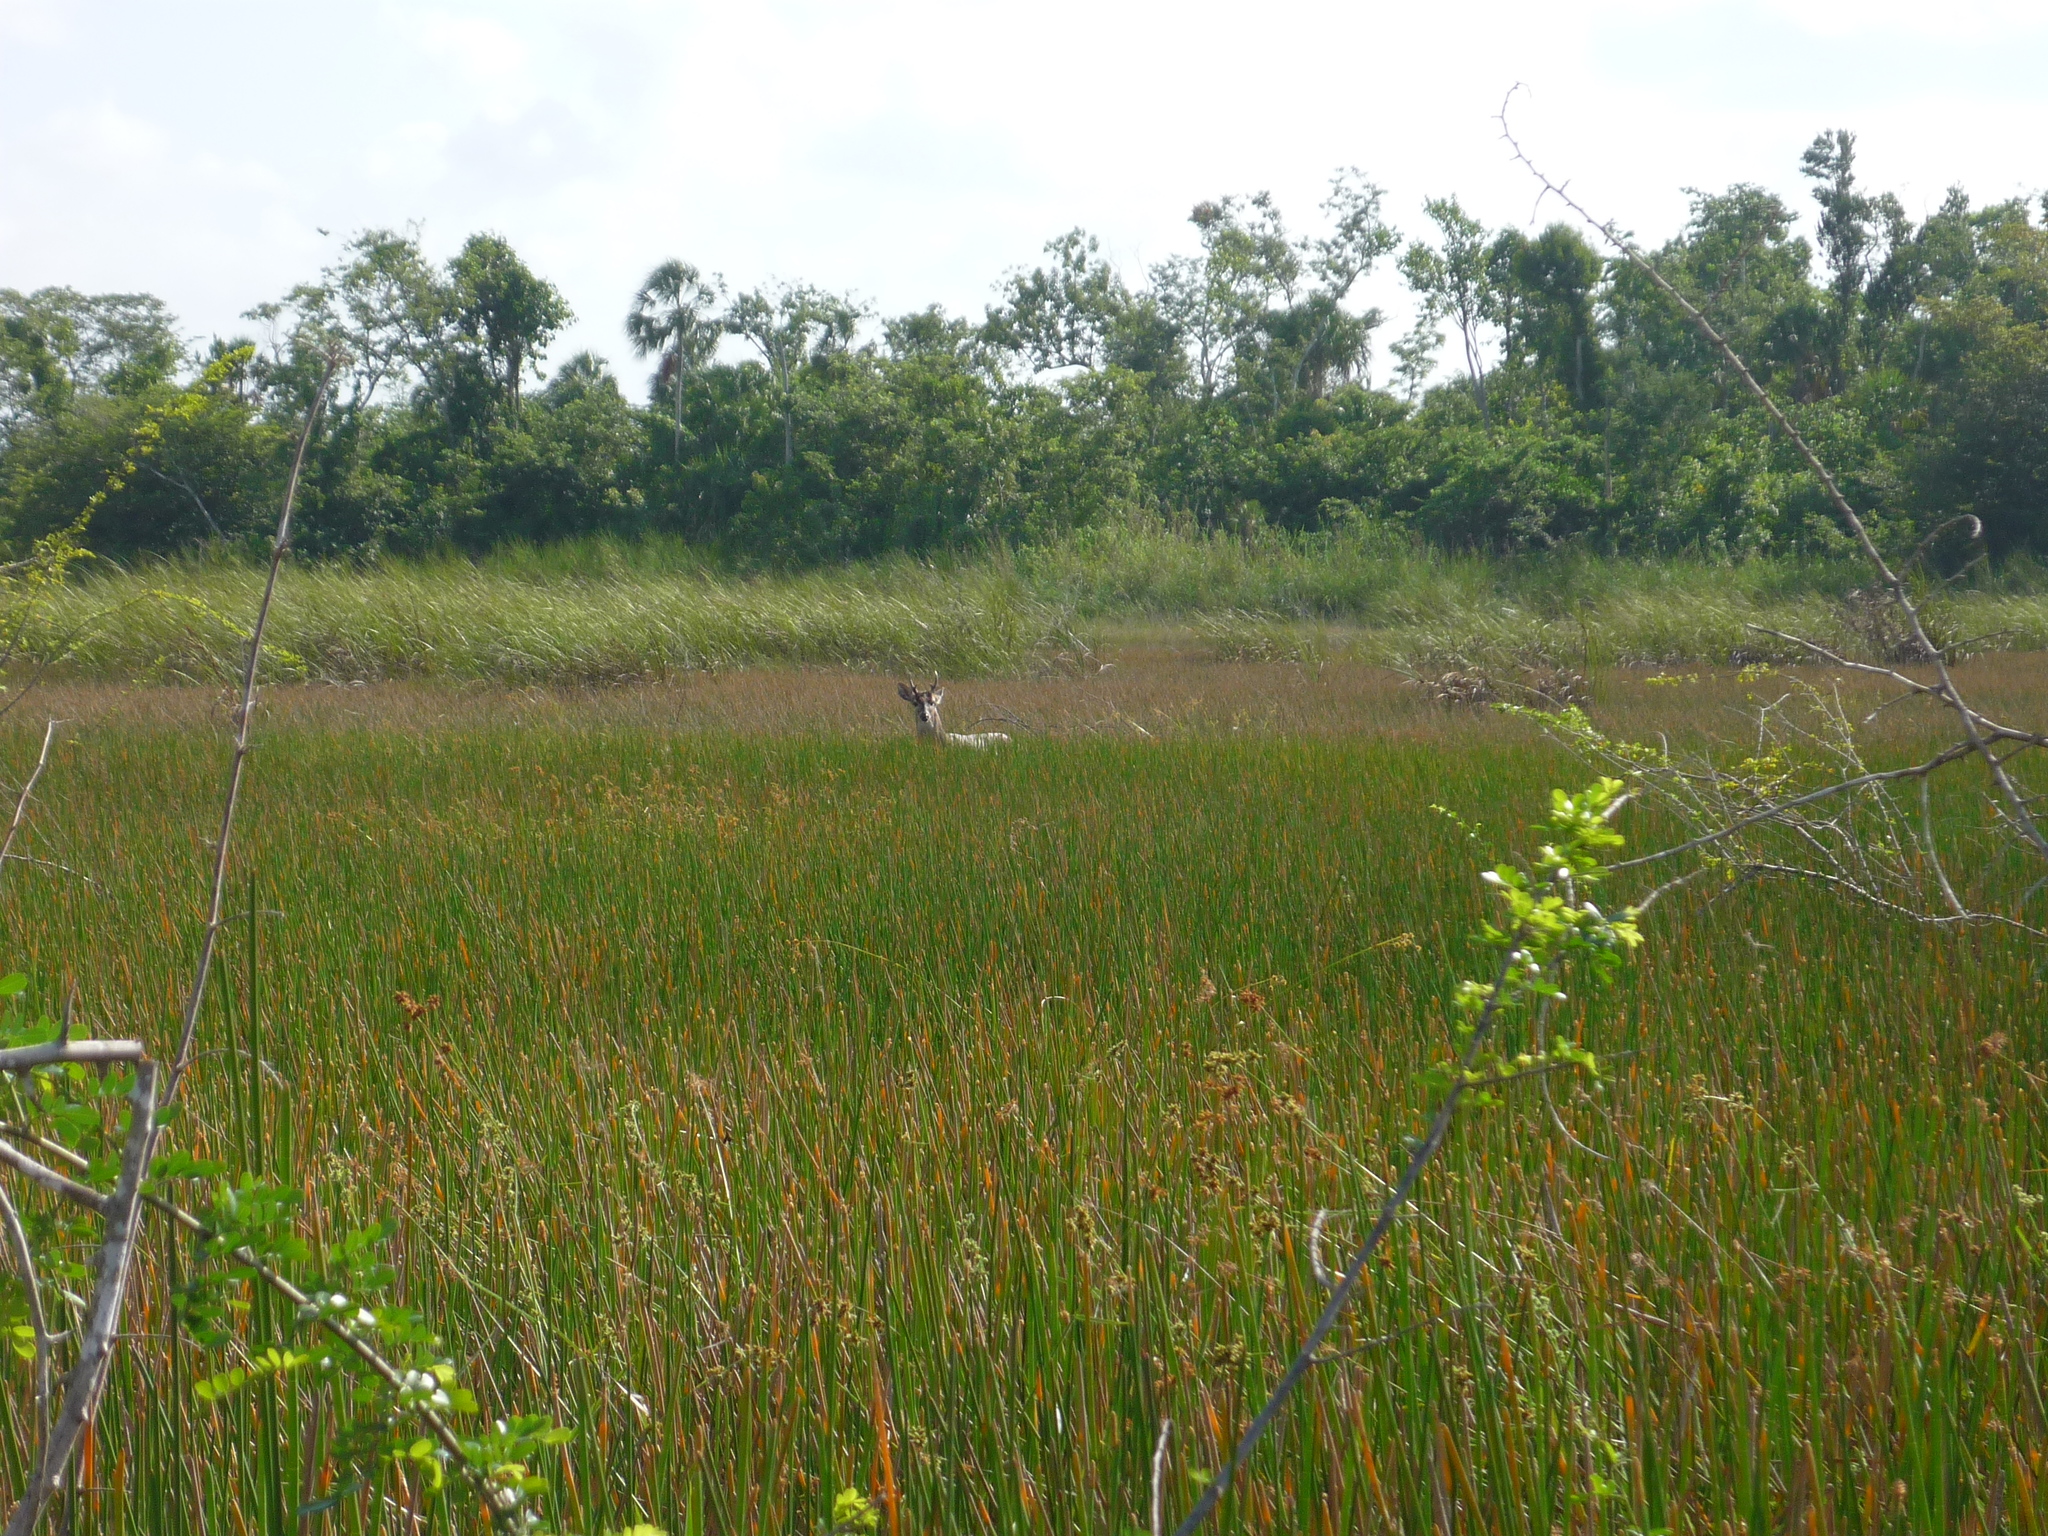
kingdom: Animalia
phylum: Chordata
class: Mammalia
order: Artiodactyla
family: Cervidae
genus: Odocoileus
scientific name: Odocoileus virginianus
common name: White-tailed deer
